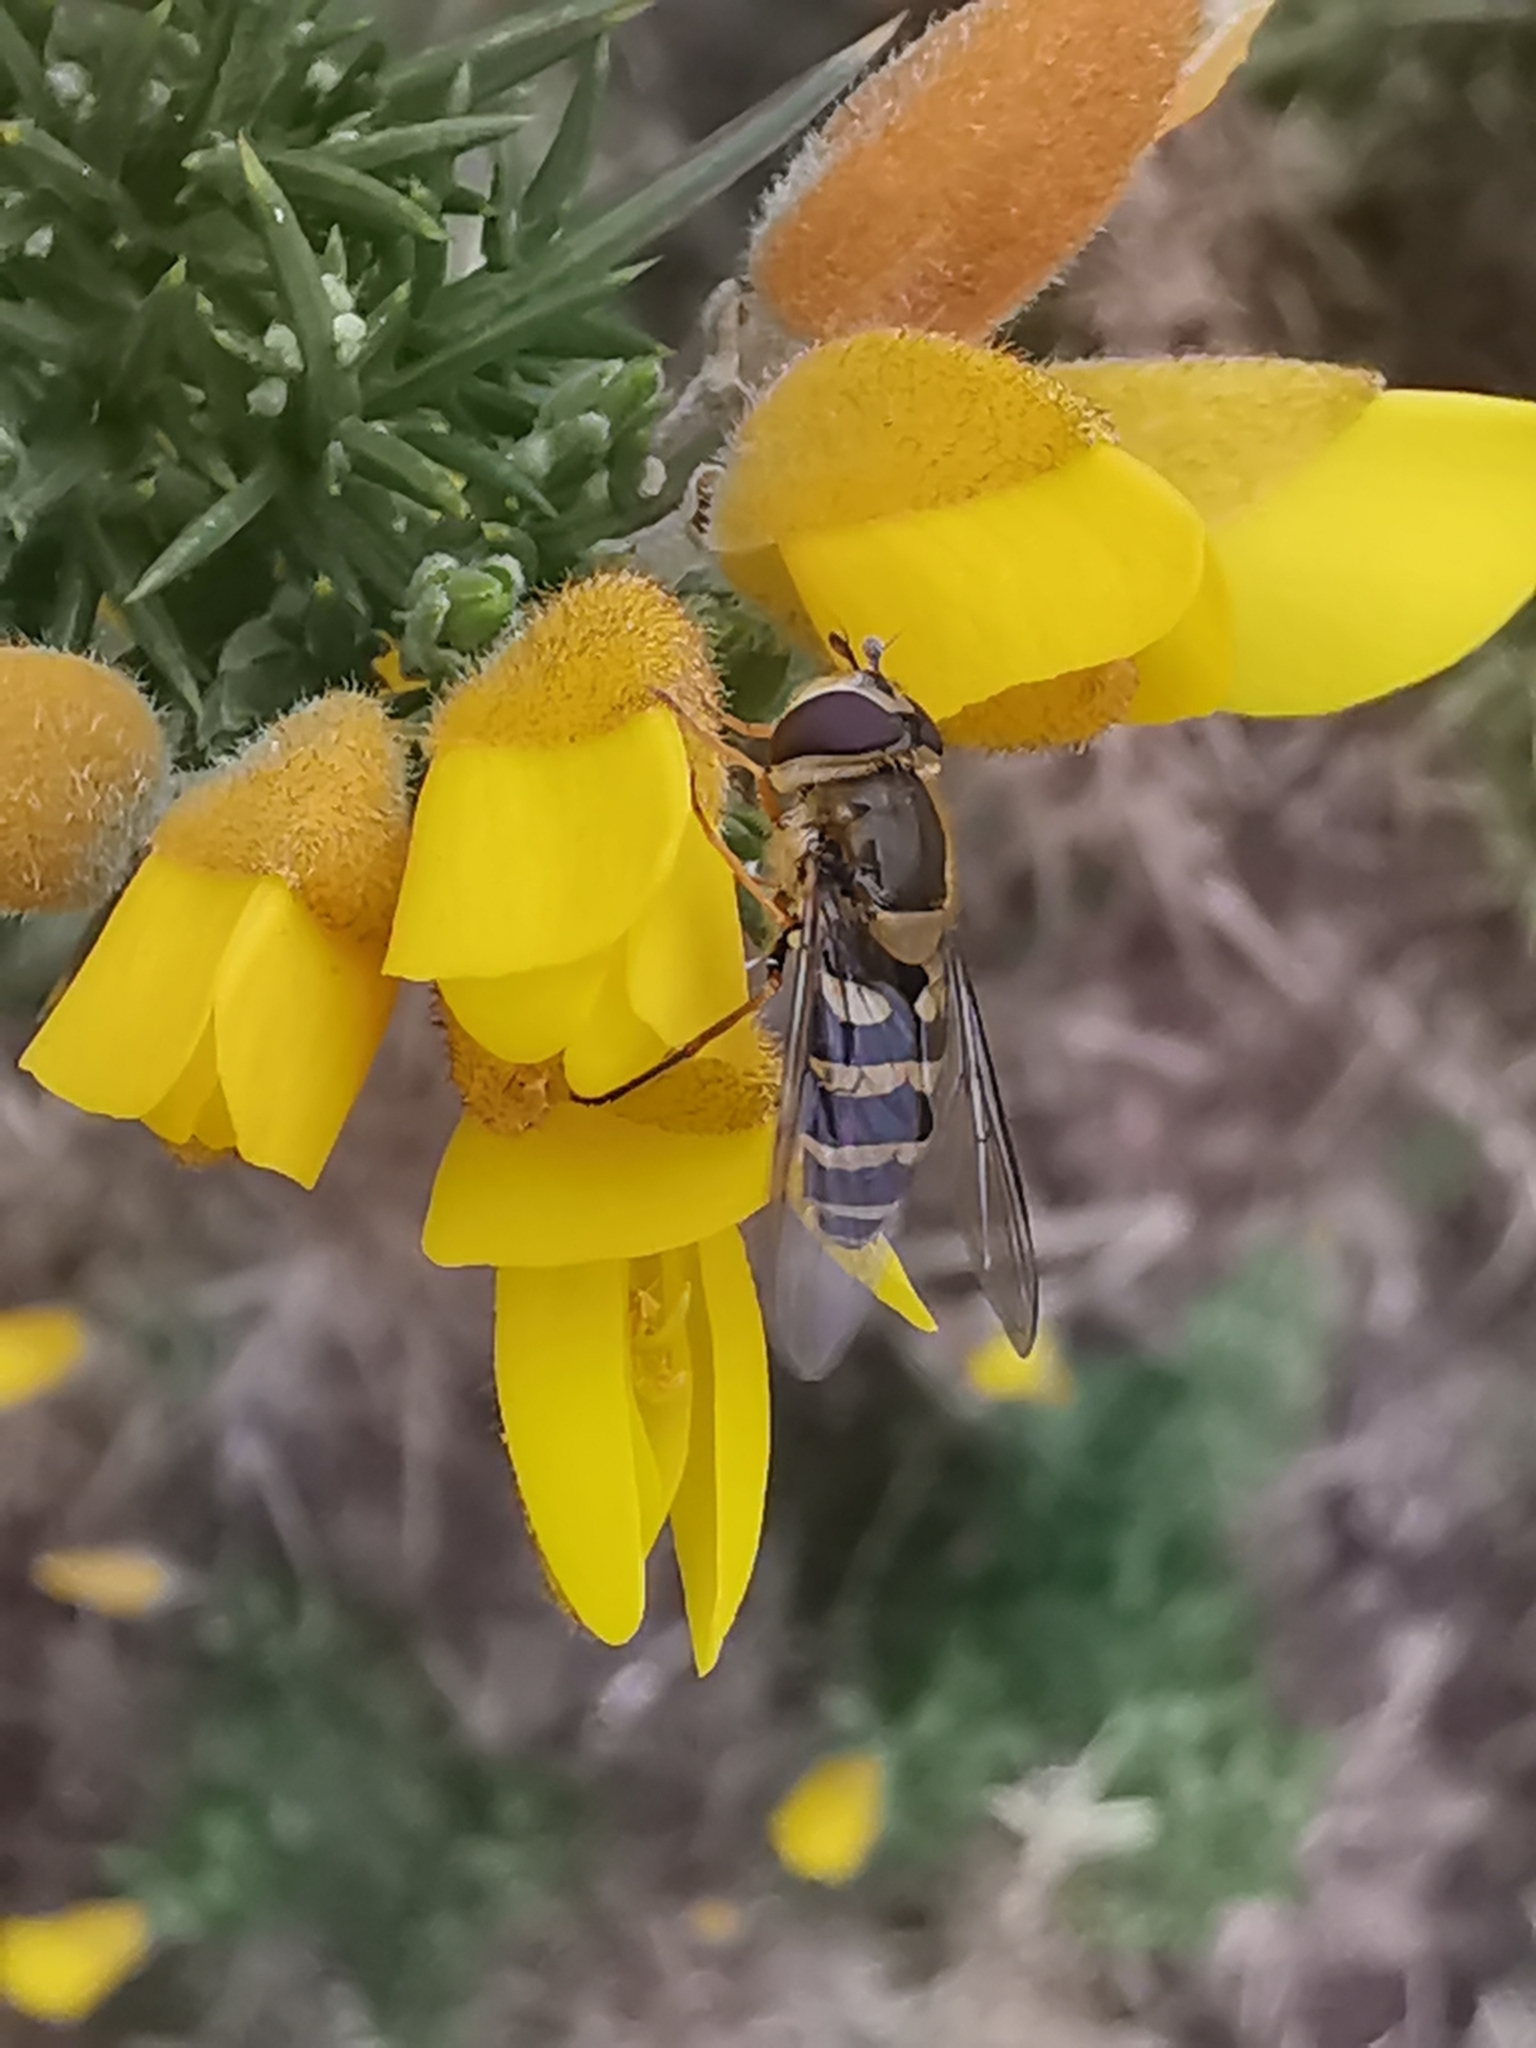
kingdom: Animalia
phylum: Arthropoda
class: Insecta
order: Diptera
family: Syrphidae
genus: Syrphus
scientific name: Syrphus
